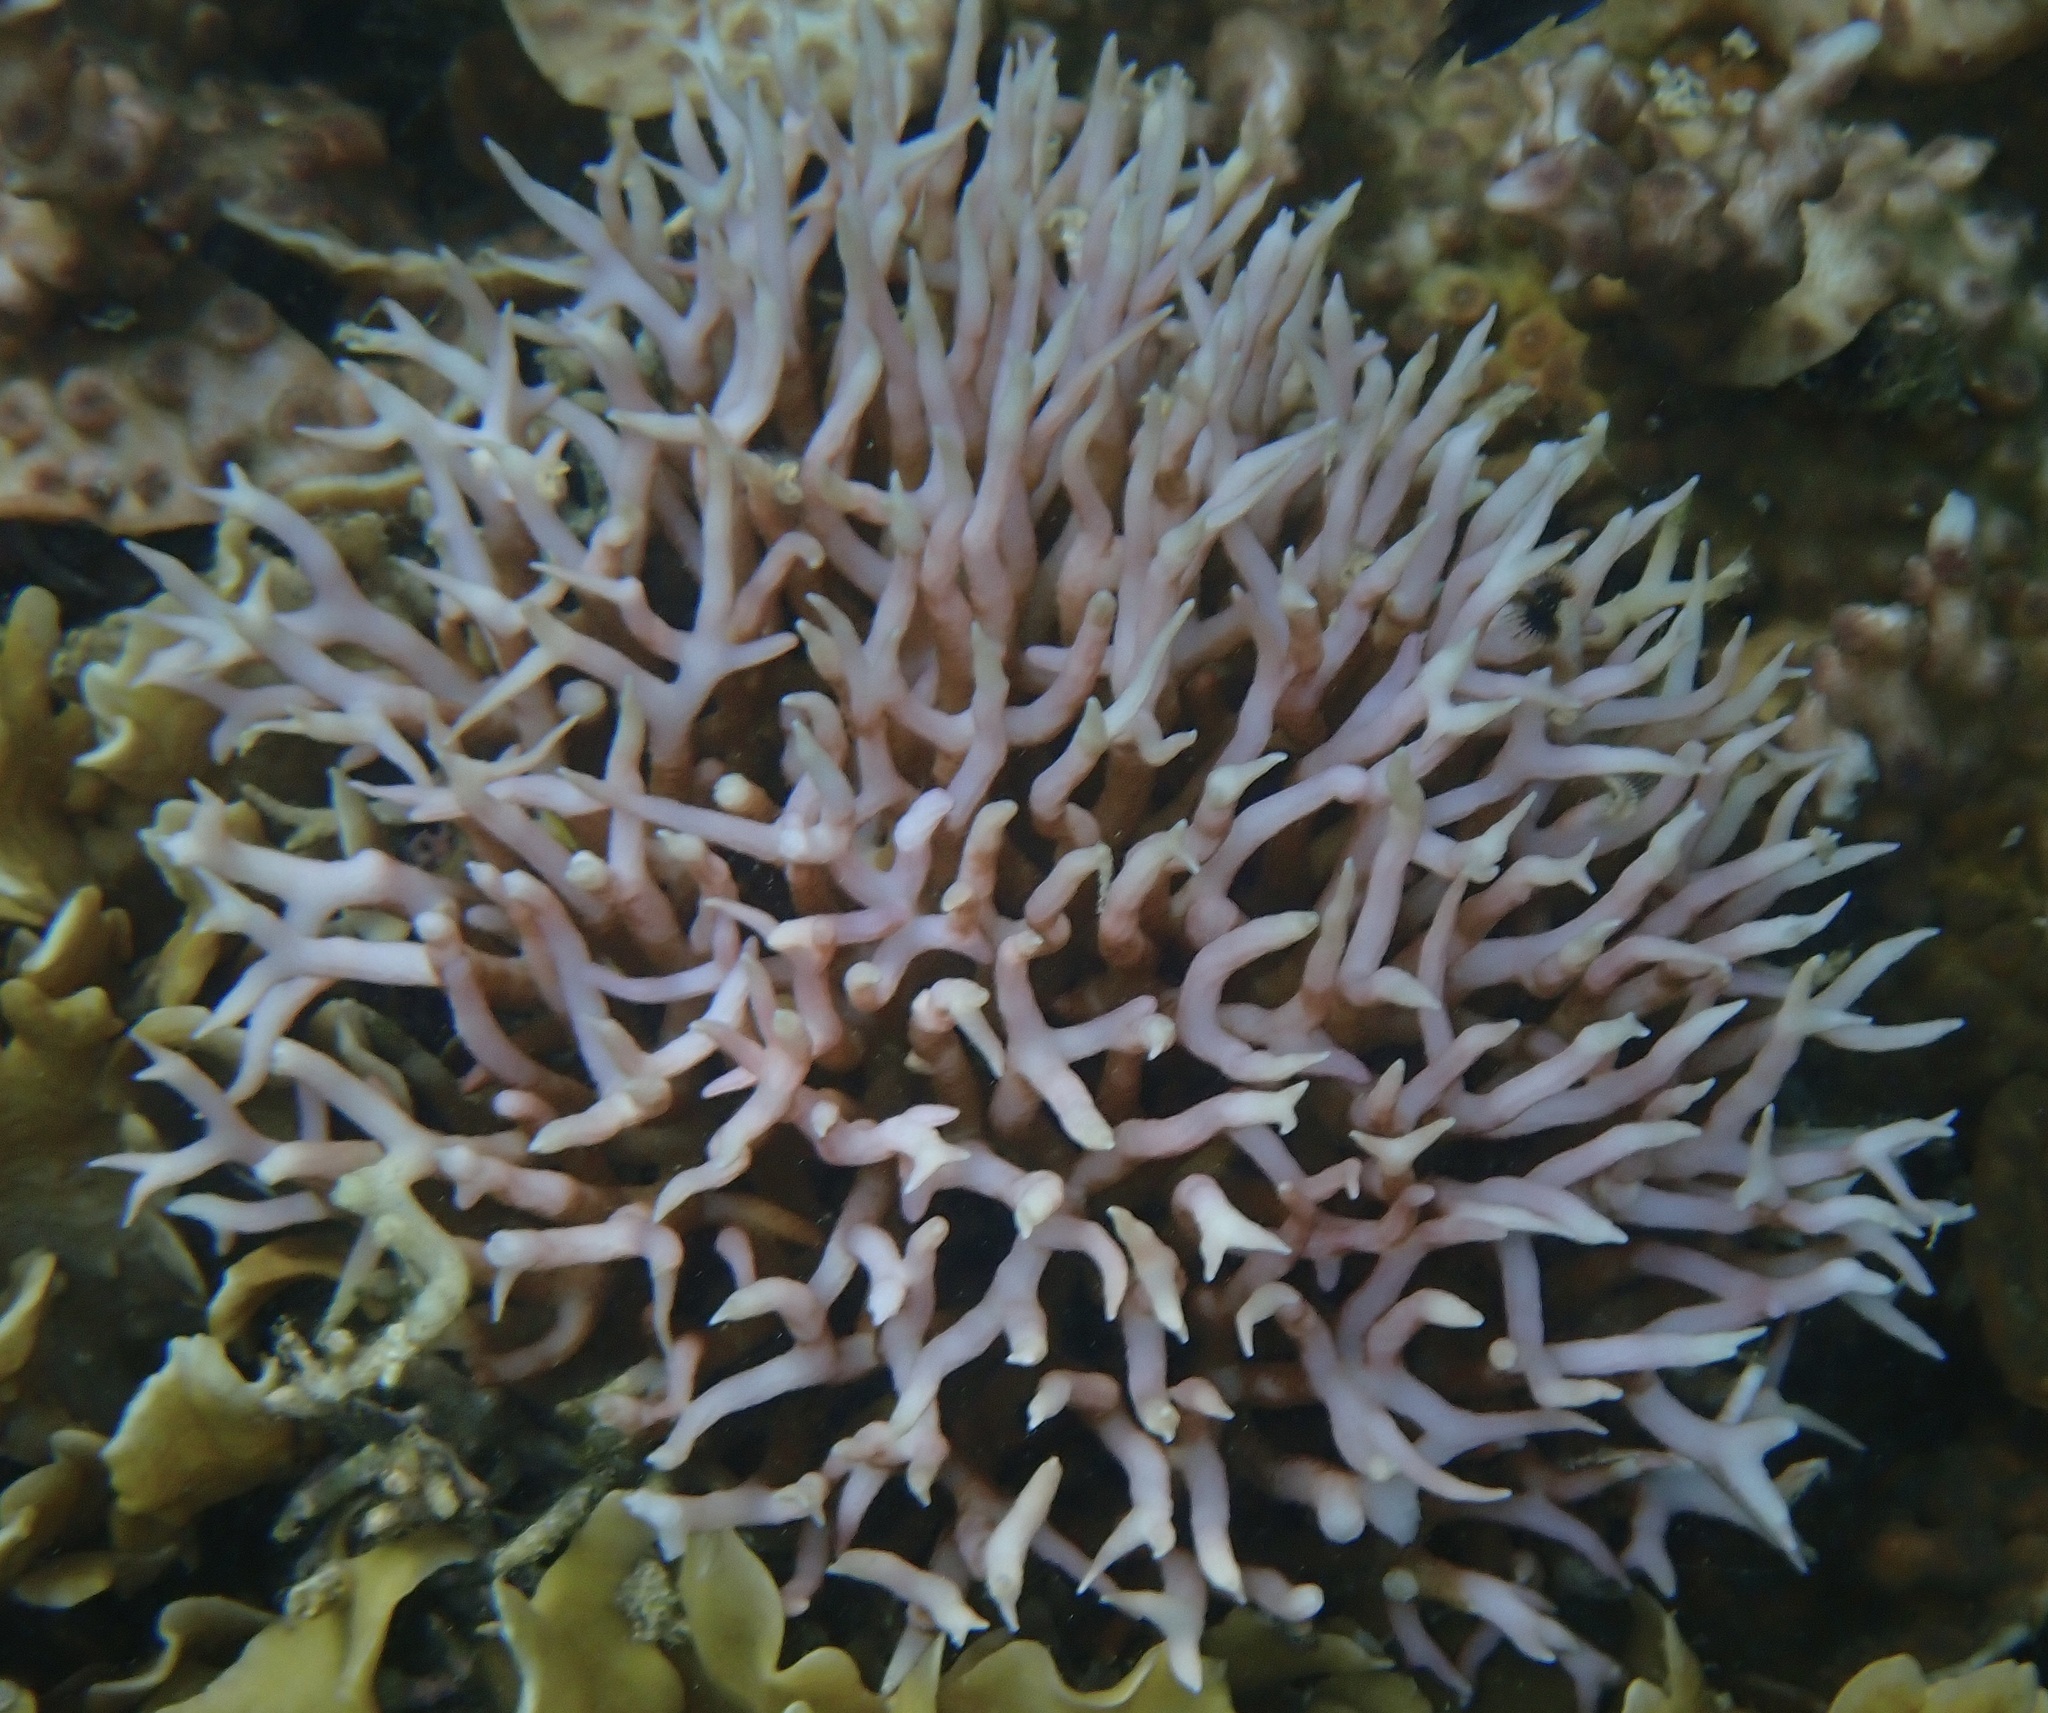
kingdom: Animalia
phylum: Cnidaria
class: Anthozoa
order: Scleractinia
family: Pocilloporidae
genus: Seriatopora
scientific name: Seriatopora hystrix
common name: Bush coral
